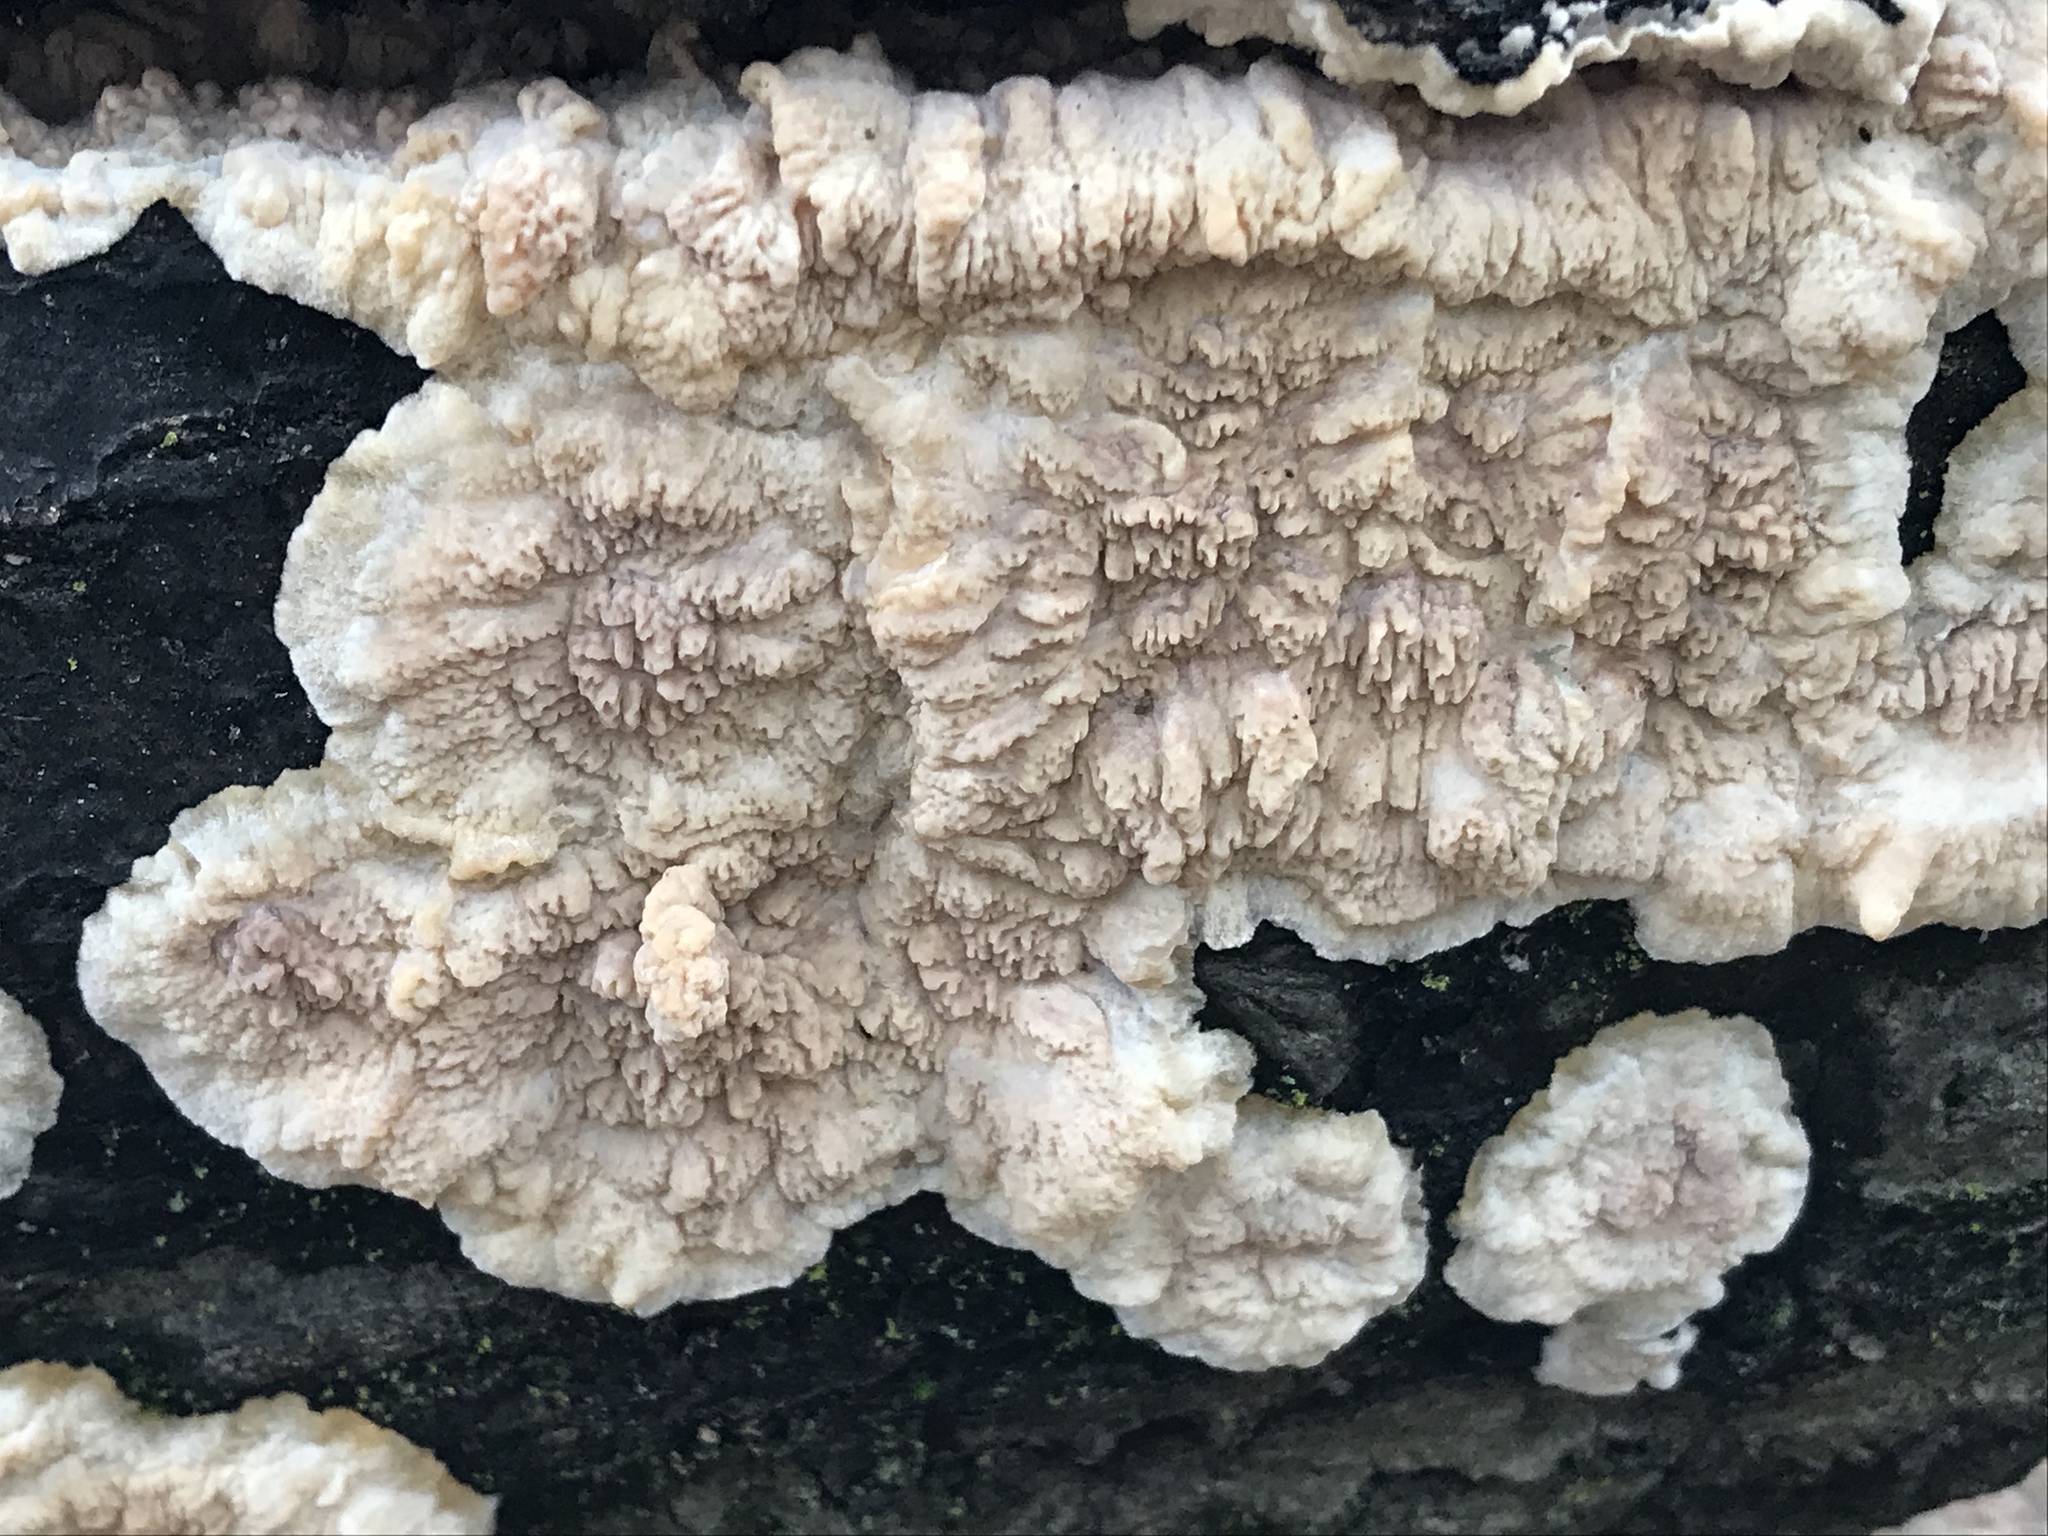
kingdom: Fungi
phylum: Basidiomycota
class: Agaricomycetes
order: Polyporales
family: Meruliaceae
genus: Phlebia
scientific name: Phlebia radiata
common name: Wrinkled crust
